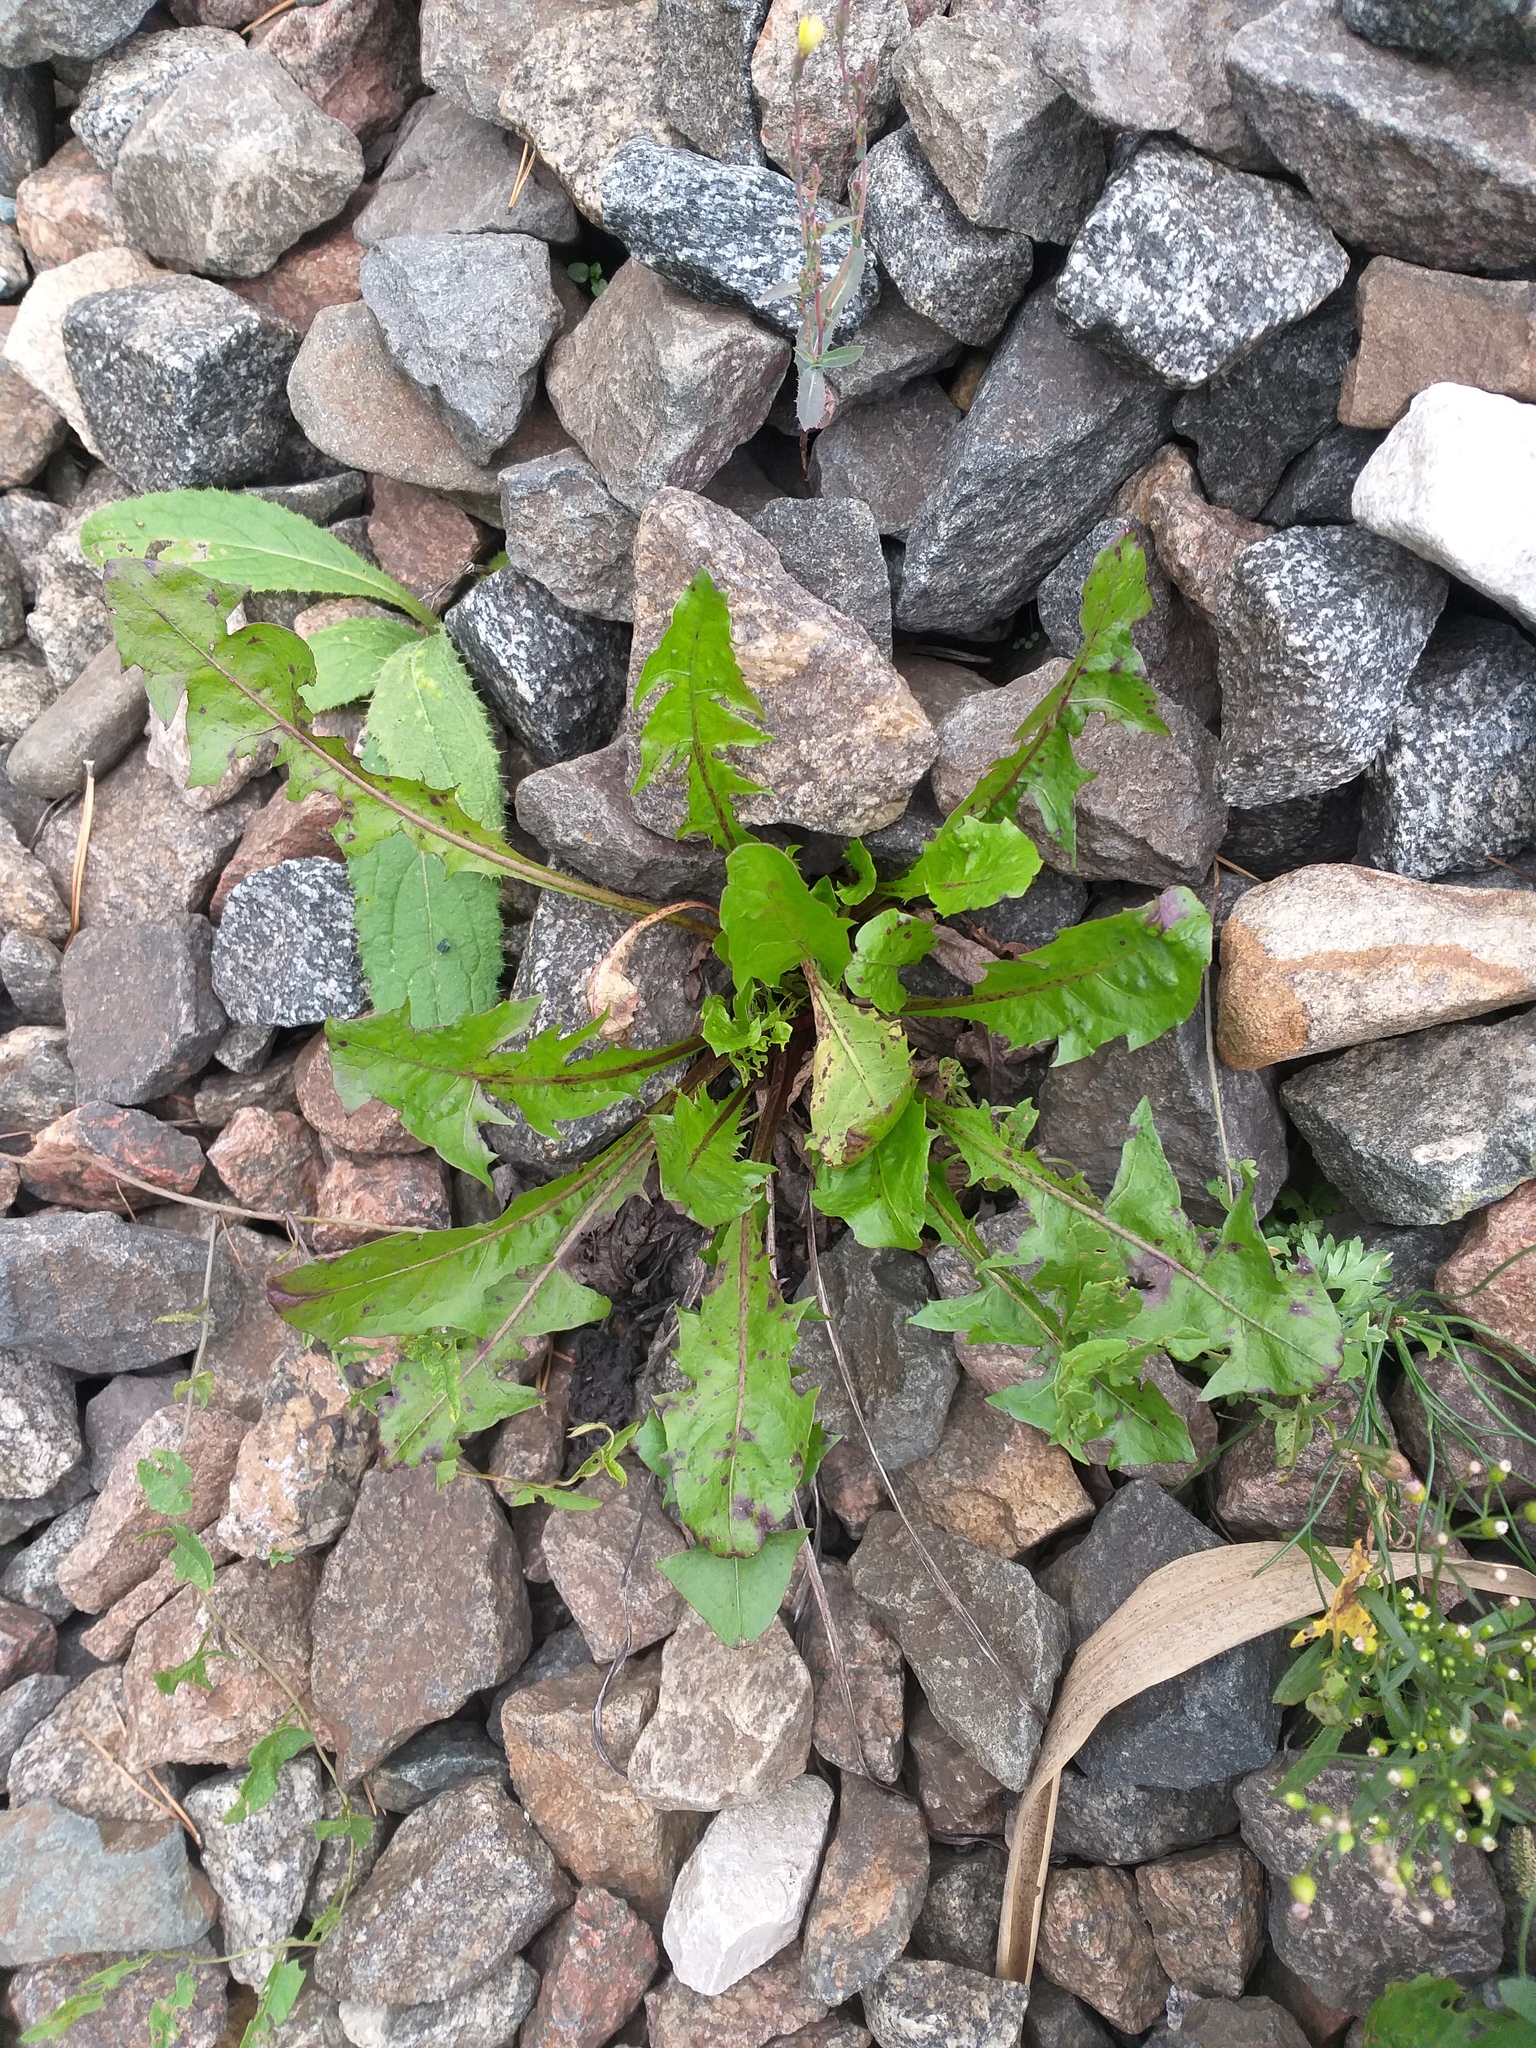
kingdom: Plantae
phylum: Tracheophyta
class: Magnoliopsida
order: Asterales
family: Asteraceae
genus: Taraxacum
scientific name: Taraxacum officinale
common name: Common dandelion
